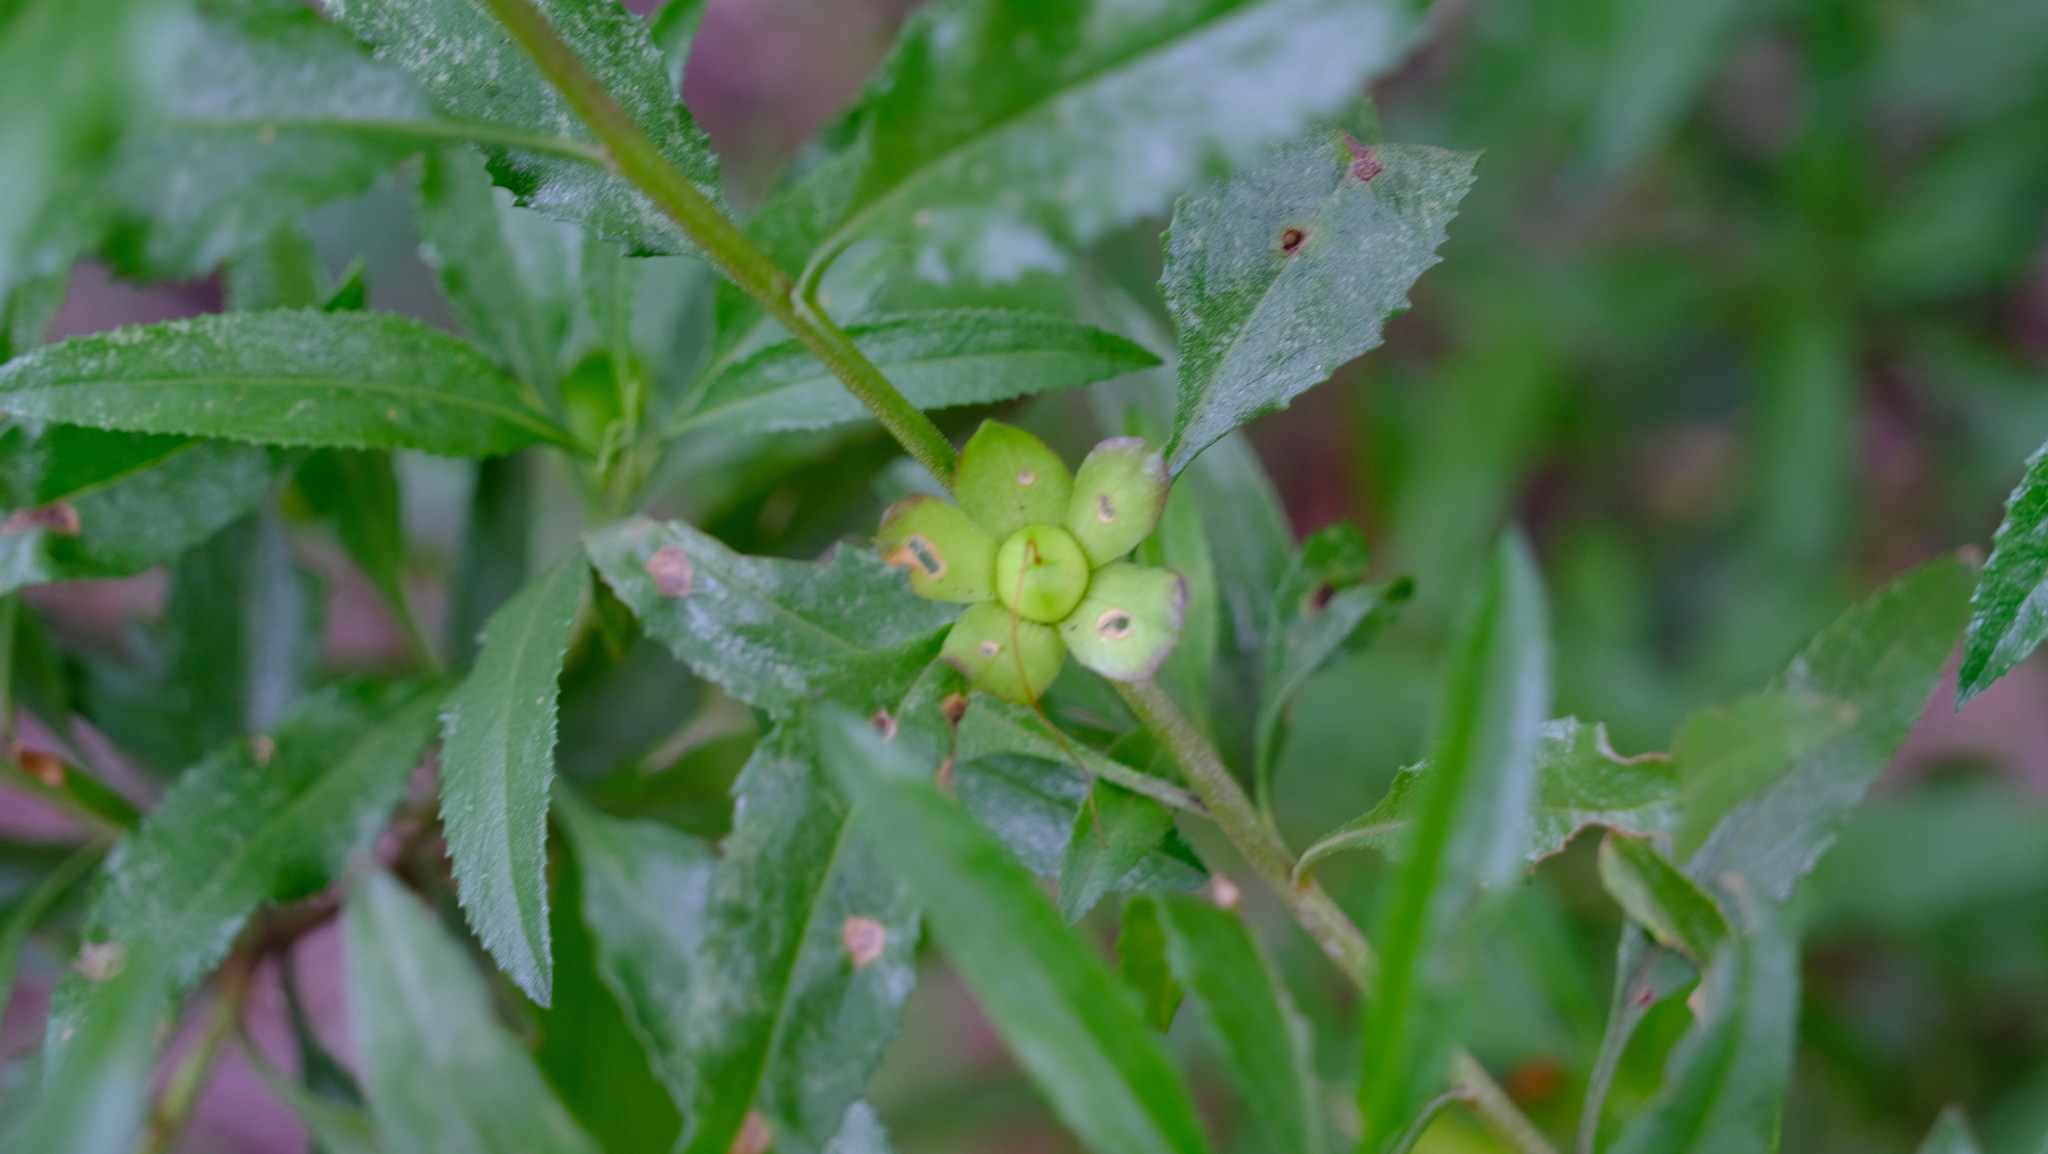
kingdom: Plantae
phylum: Tracheophyta
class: Magnoliopsida
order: Lamiales
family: Scrophulariaceae
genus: Eremophila
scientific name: Eremophila serrulata
